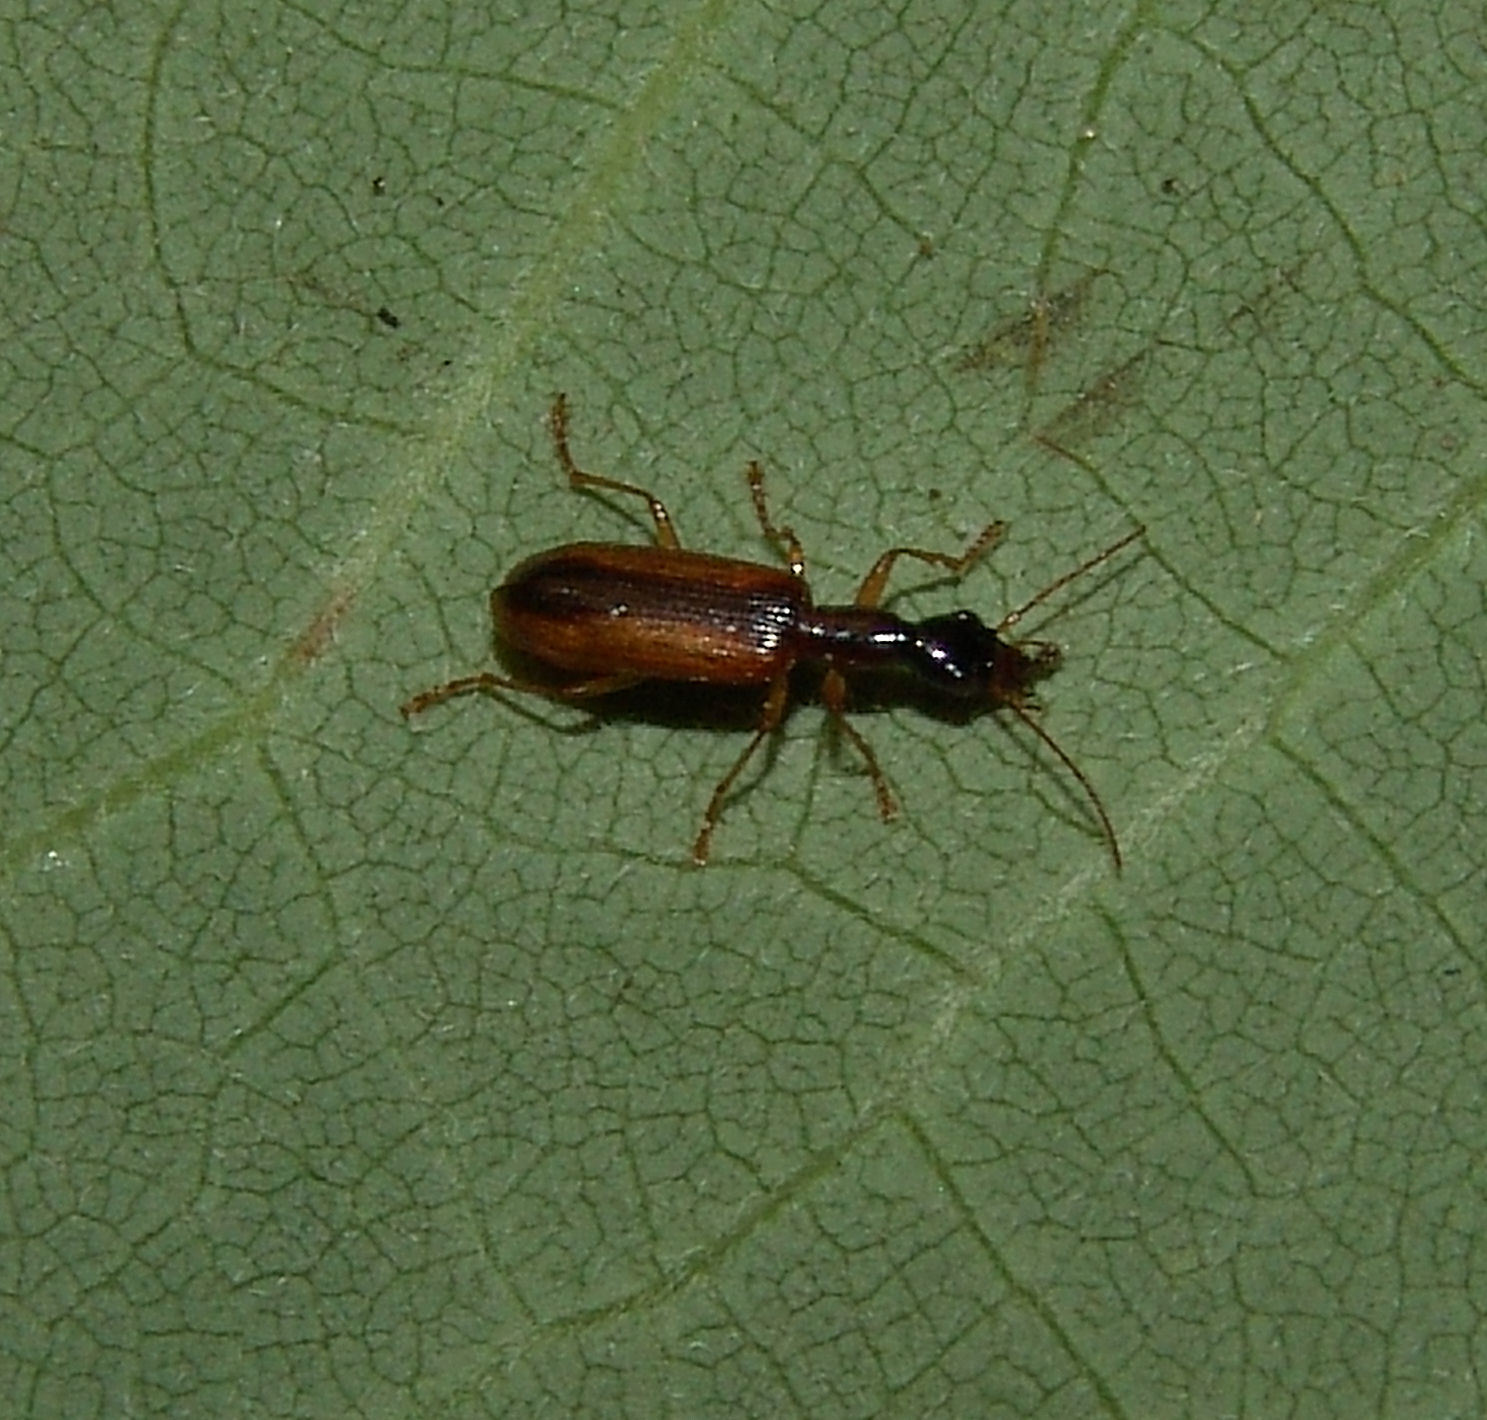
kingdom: Animalia
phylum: Arthropoda
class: Insecta
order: Coleoptera
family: Carabidae
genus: Leptotrachelus
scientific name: Leptotrachelus dorsalis
